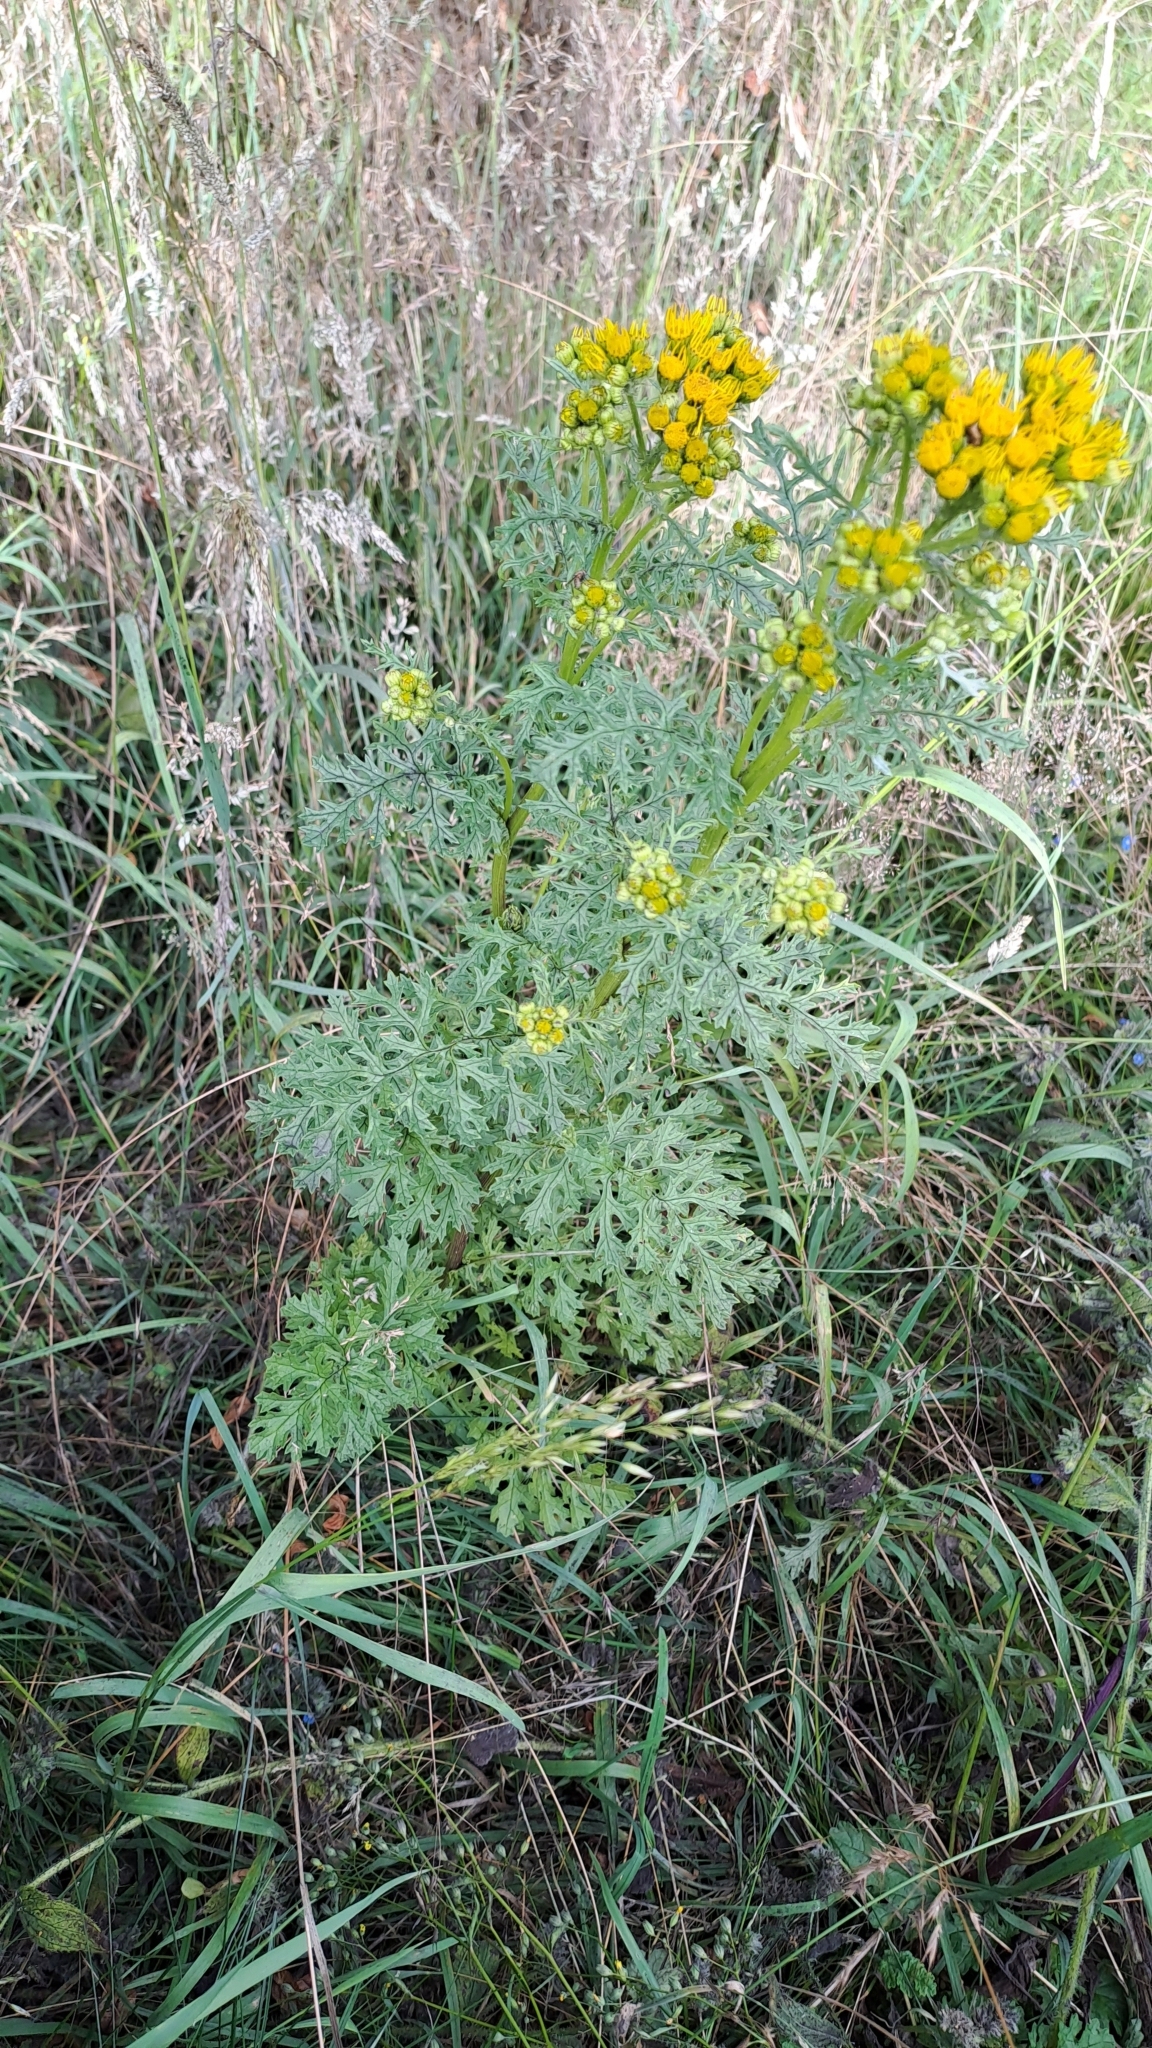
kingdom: Plantae
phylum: Tracheophyta
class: Magnoliopsida
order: Asterales
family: Asteraceae
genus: Jacobaea
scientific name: Jacobaea vulgaris
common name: Stinking willie
